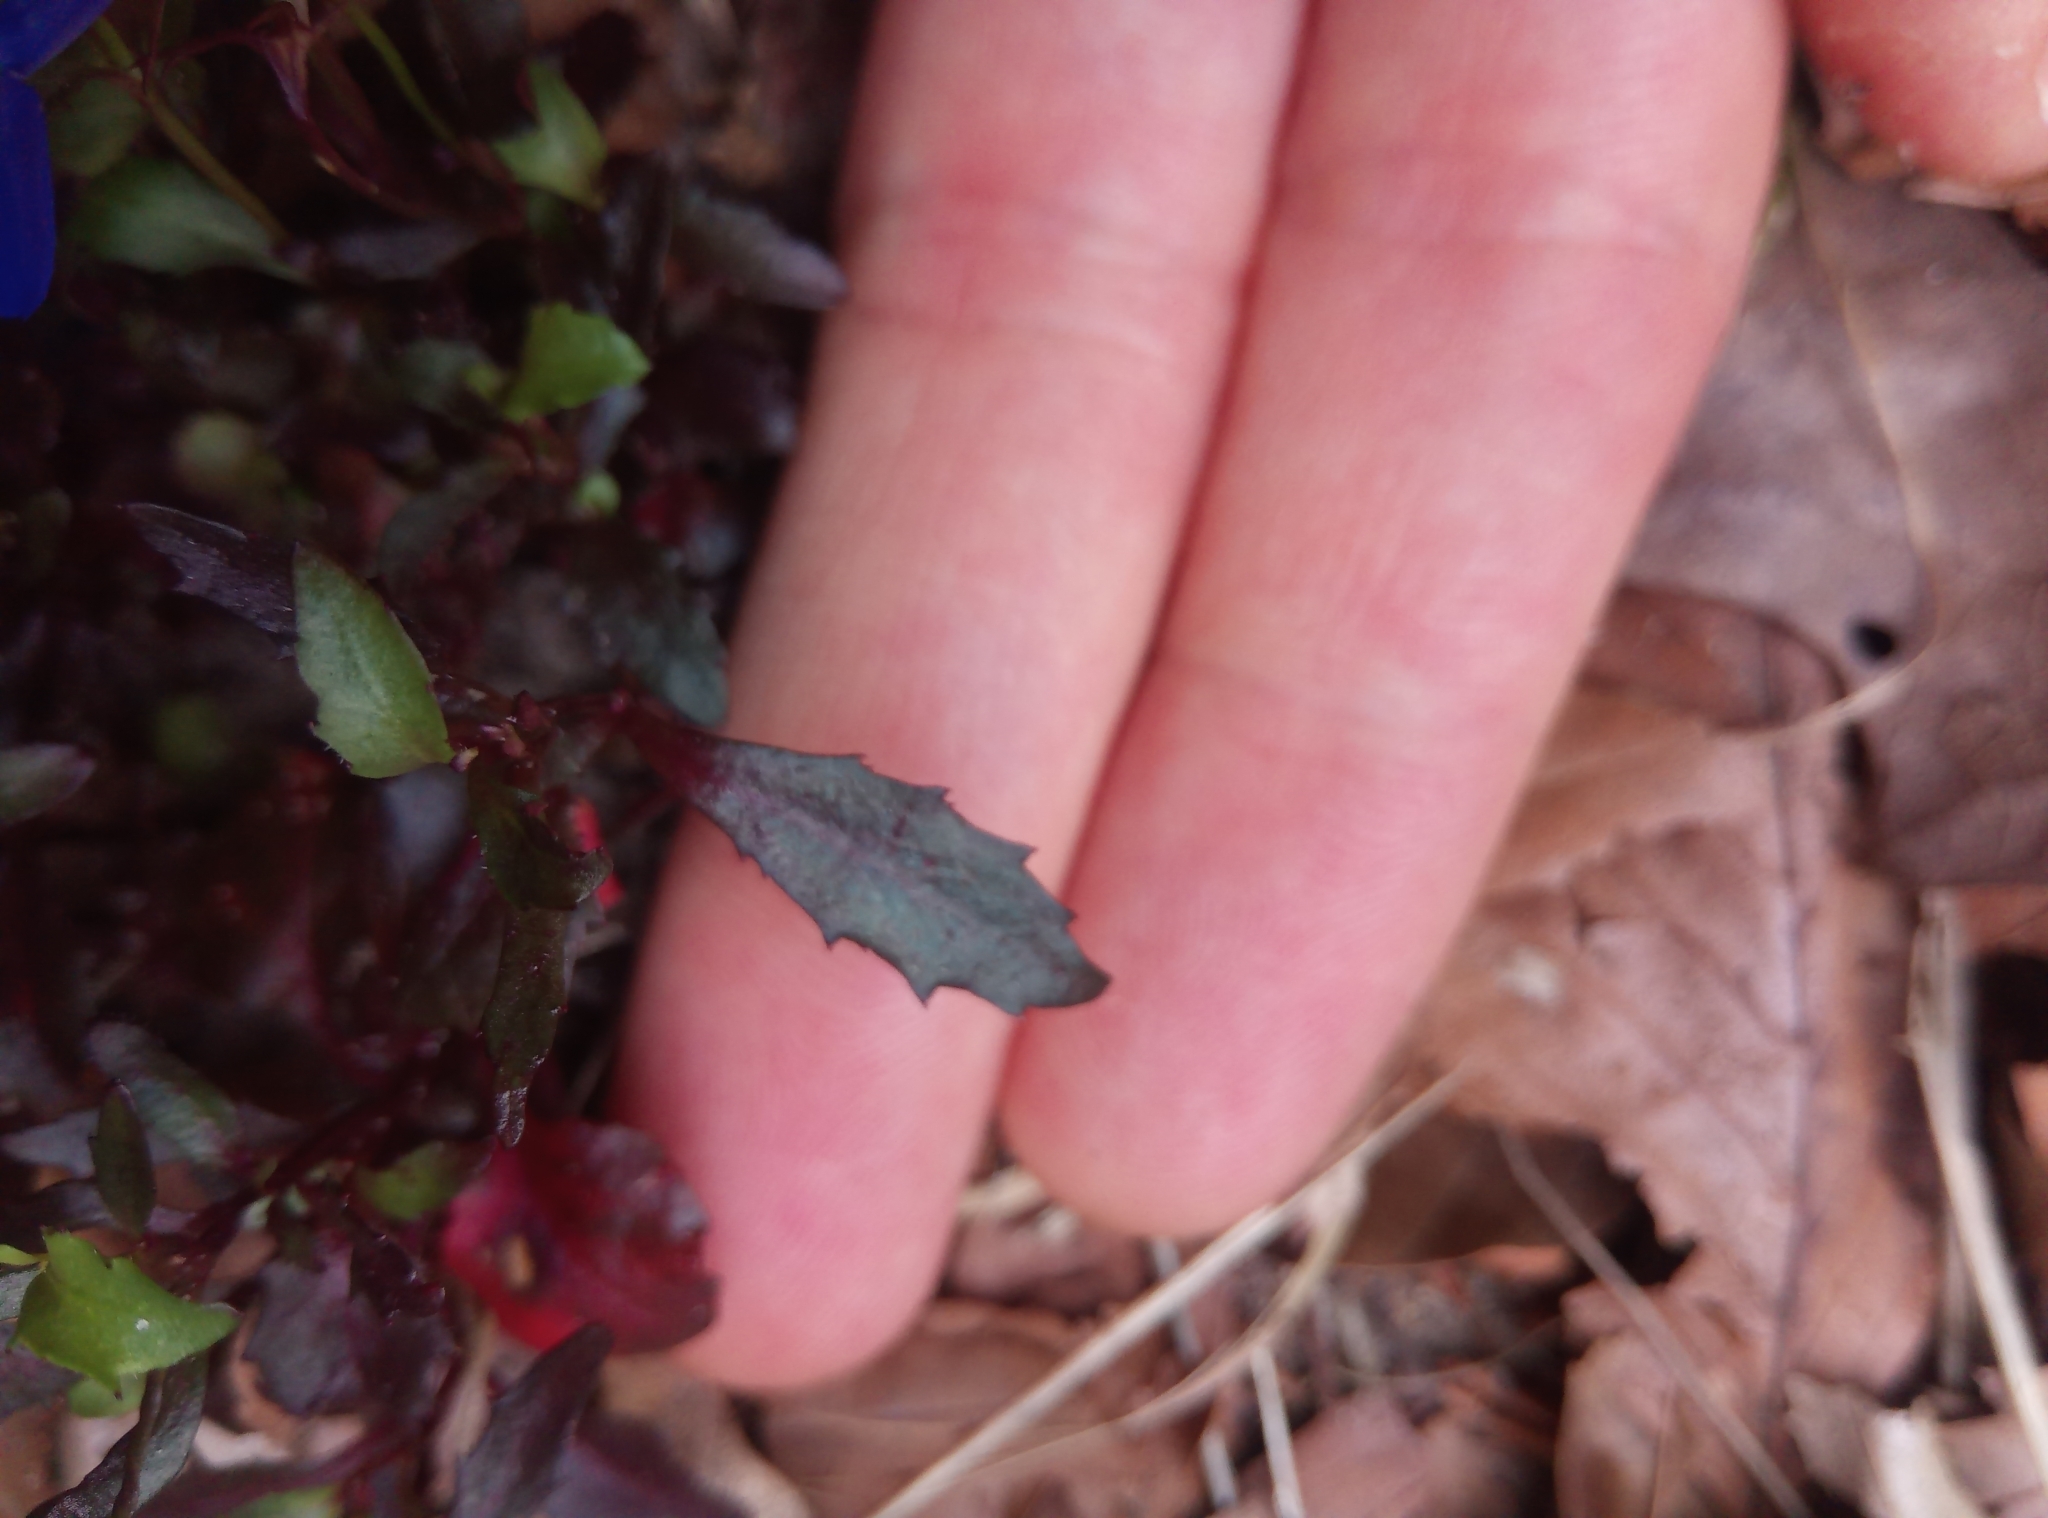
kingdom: Plantae
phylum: Tracheophyta
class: Magnoliopsida
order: Asterales
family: Campanulaceae
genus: Lobelia
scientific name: Lobelia erinus
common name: Edging lobelia
